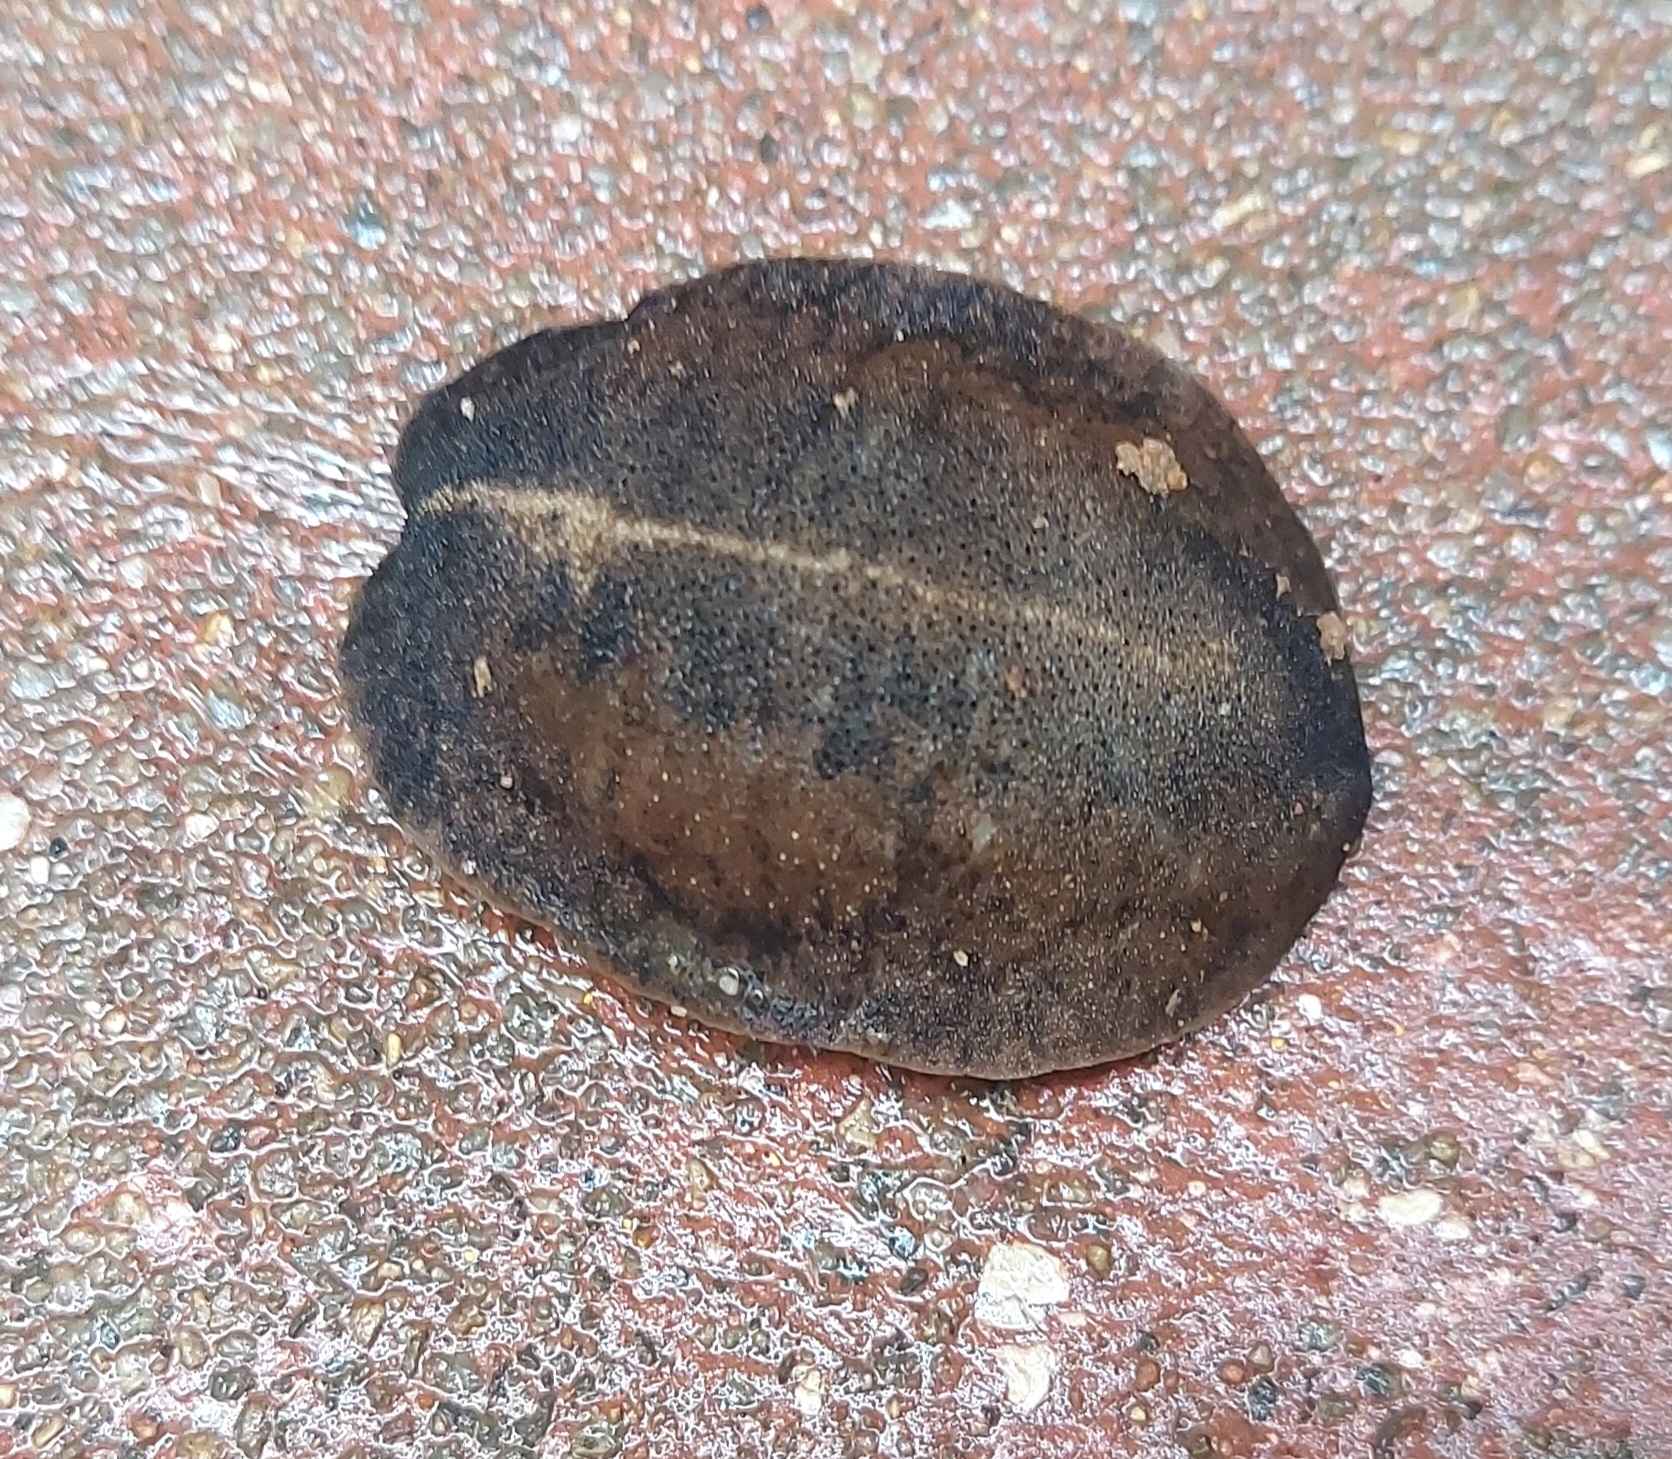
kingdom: Animalia
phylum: Mollusca
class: Gastropoda
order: Systellommatophora
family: Veronicellidae
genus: Laevicaulis
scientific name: Laevicaulis alte
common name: Tropical leatherleaf
